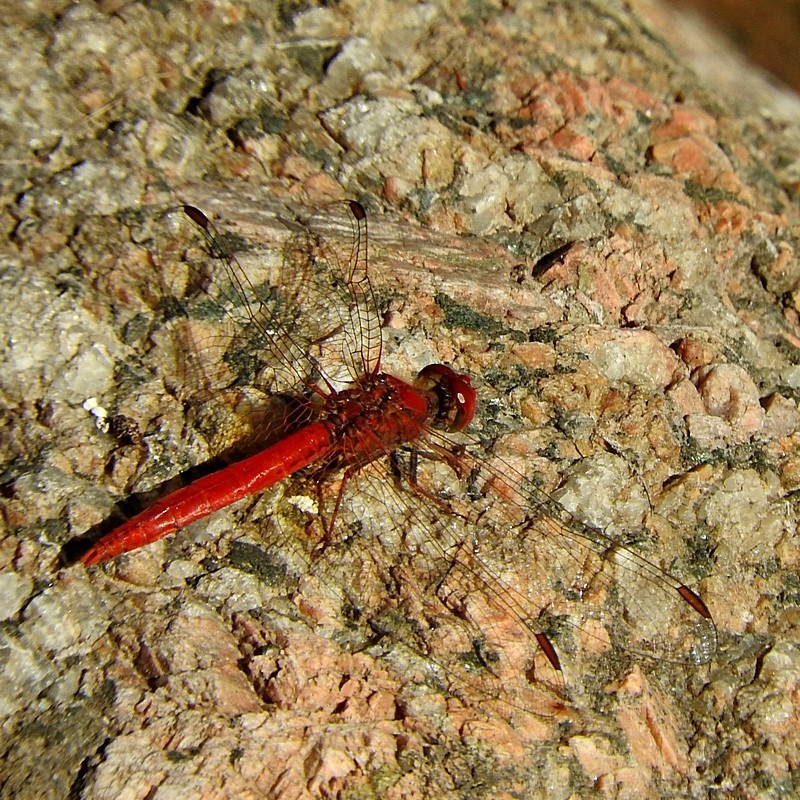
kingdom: Animalia
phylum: Arthropoda
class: Insecta
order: Odonata
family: Libellulidae
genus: Diplacodes
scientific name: Diplacodes haematodes
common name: Scarlet percher
